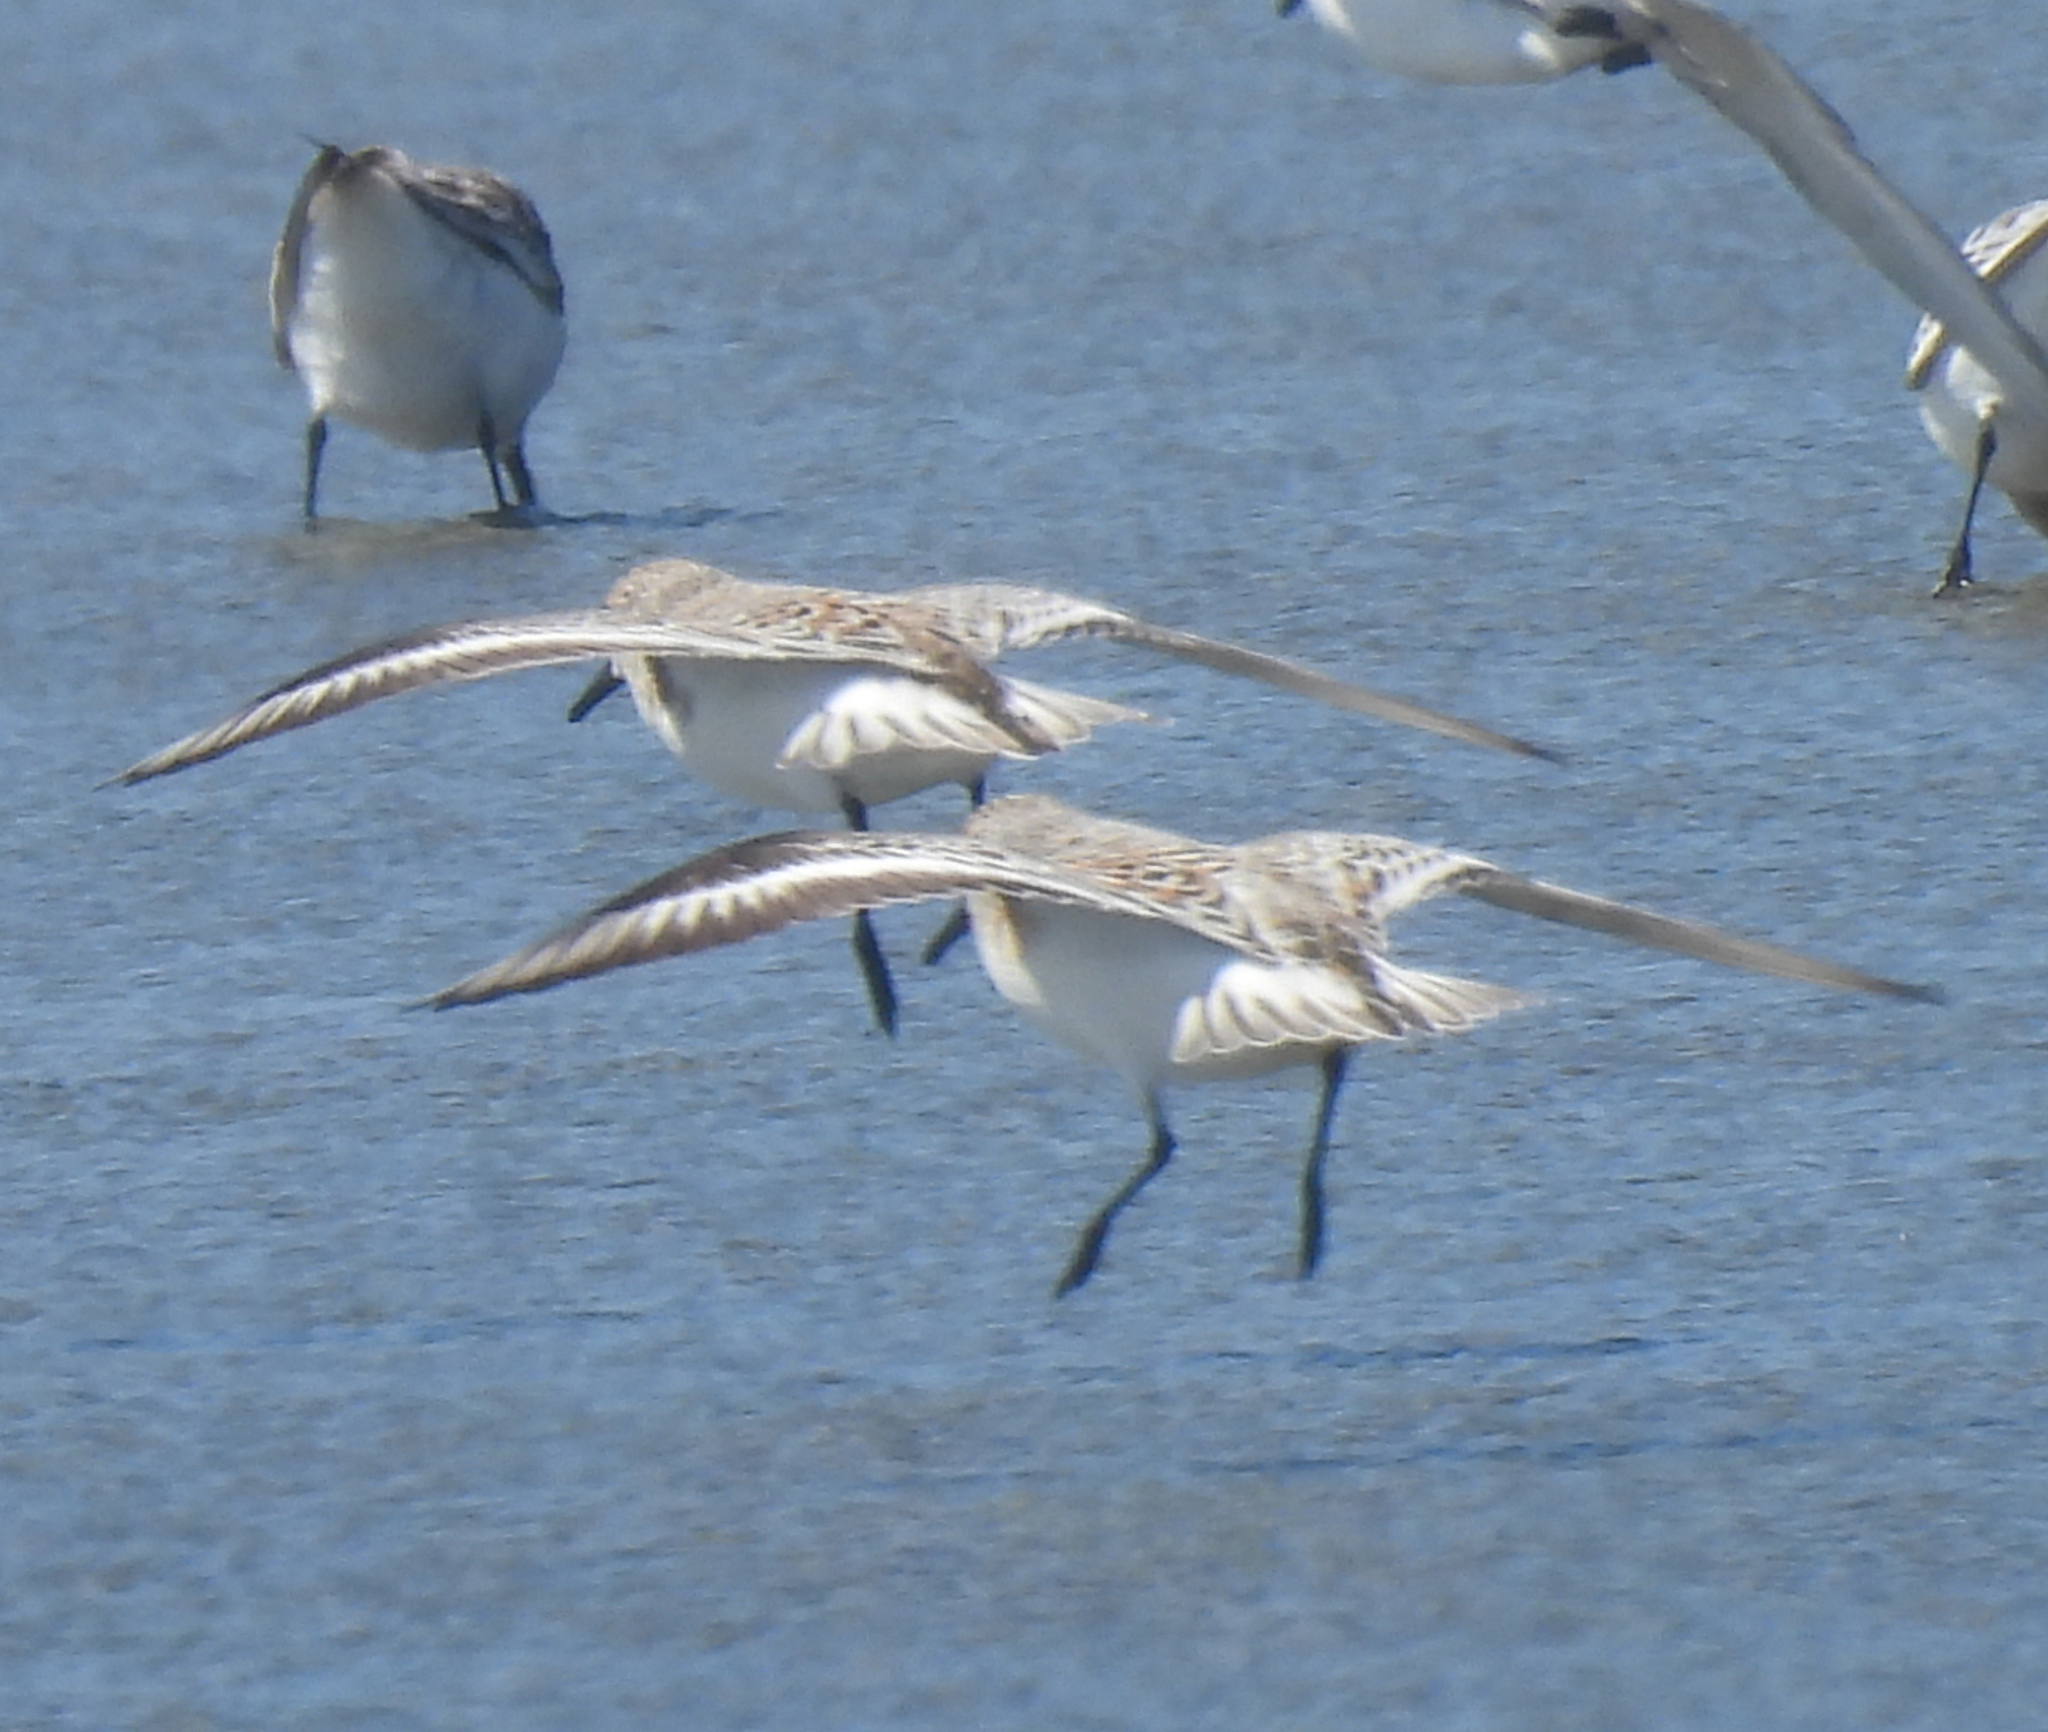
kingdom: Animalia
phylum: Chordata
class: Aves
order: Charadriiformes
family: Scolopacidae
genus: Calidris
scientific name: Calidris alba
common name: Sanderling
